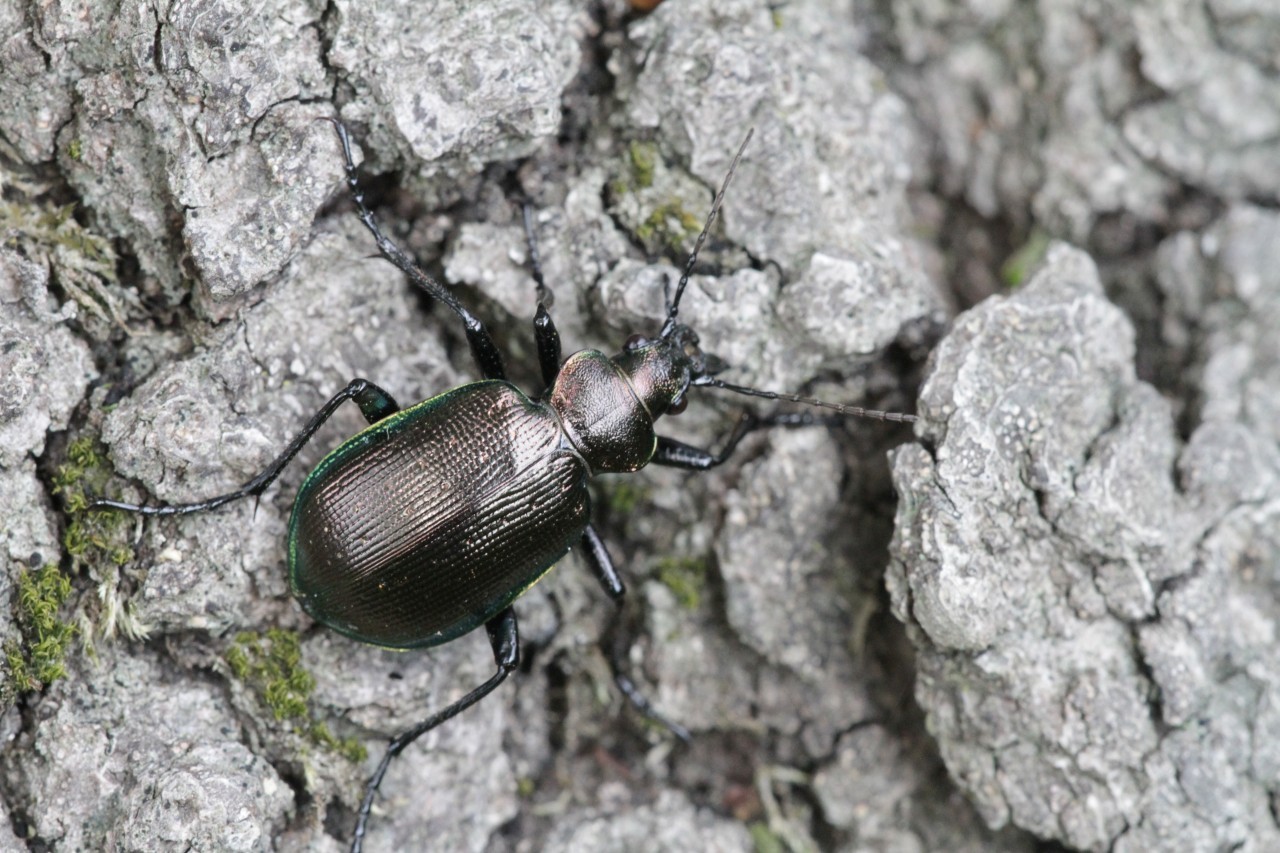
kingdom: Animalia
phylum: Arthropoda
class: Insecta
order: Coleoptera
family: Carabidae
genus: Calosoma
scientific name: Calosoma inquisitor
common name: Caterpillar-hunter
